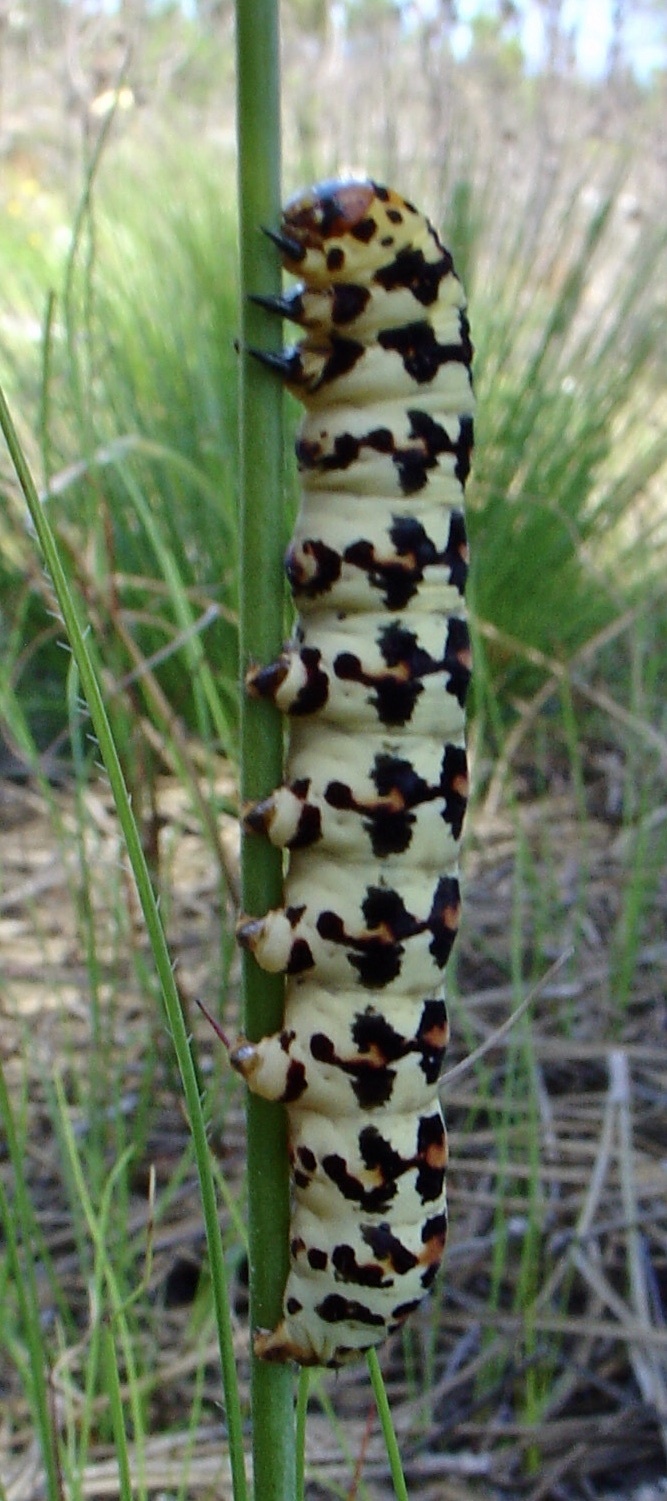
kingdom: Animalia
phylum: Arthropoda
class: Insecta
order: Lepidoptera
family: Noctuidae
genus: Diaphone
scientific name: Diaphone eumela
